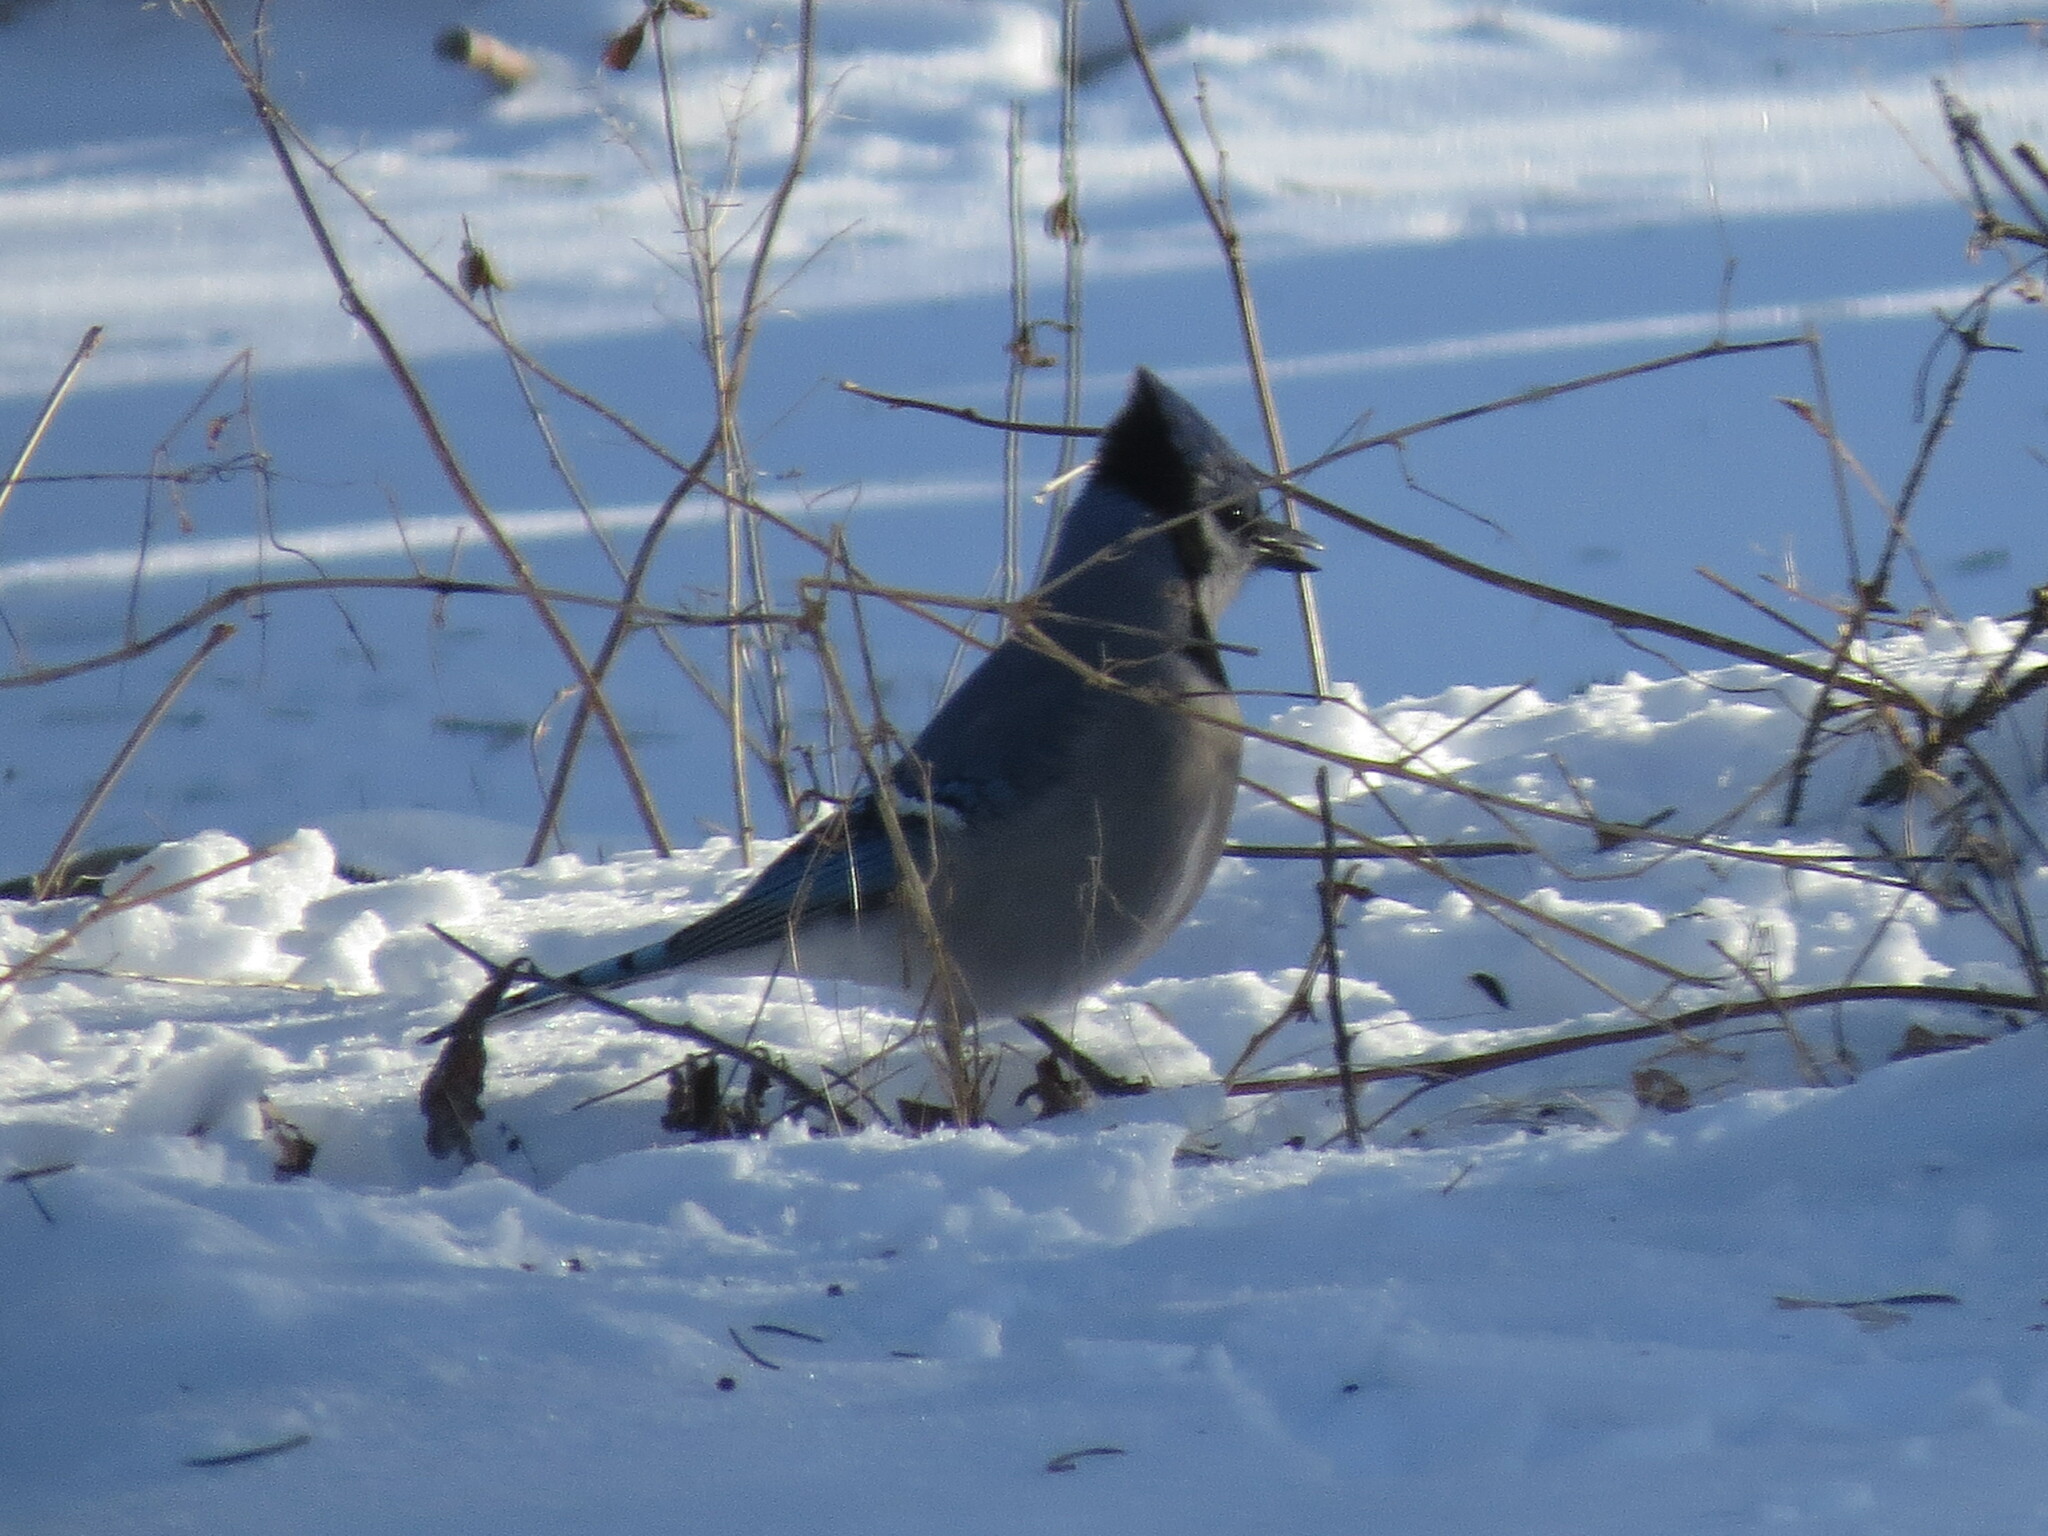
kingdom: Animalia
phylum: Chordata
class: Aves
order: Passeriformes
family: Corvidae
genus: Cyanocitta
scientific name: Cyanocitta cristata
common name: Blue jay
